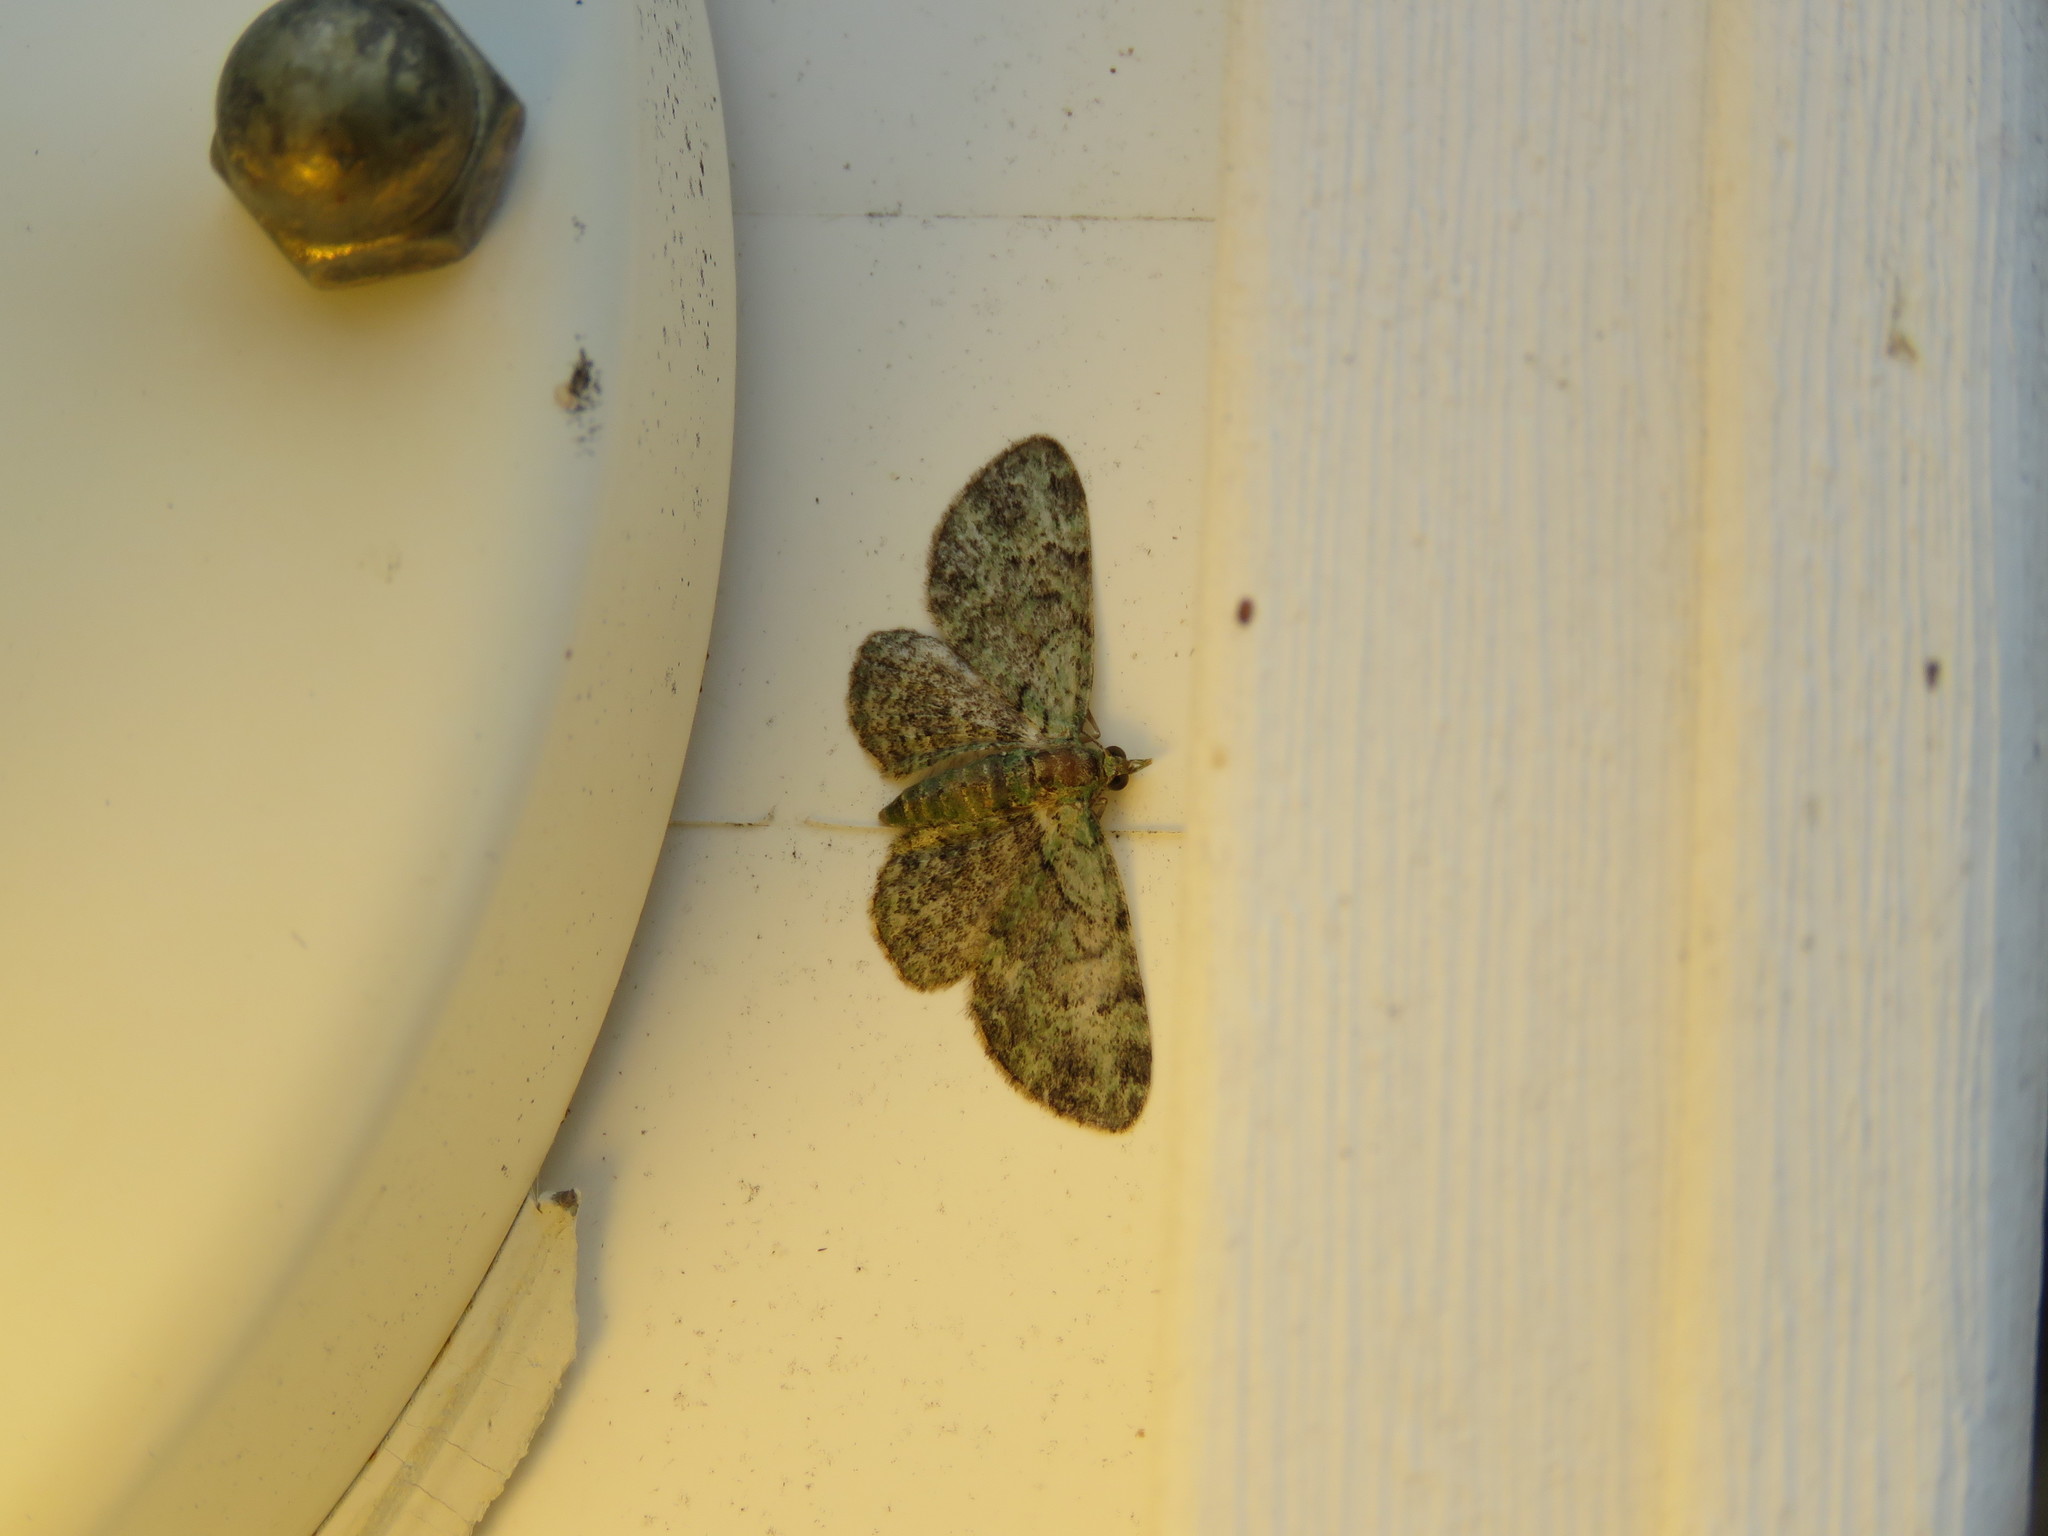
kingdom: Animalia
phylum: Arthropoda
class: Insecta
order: Lepidoptera
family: Geometridae
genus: Pasiphila
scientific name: Pasiphila rectangulata
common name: Green pug
